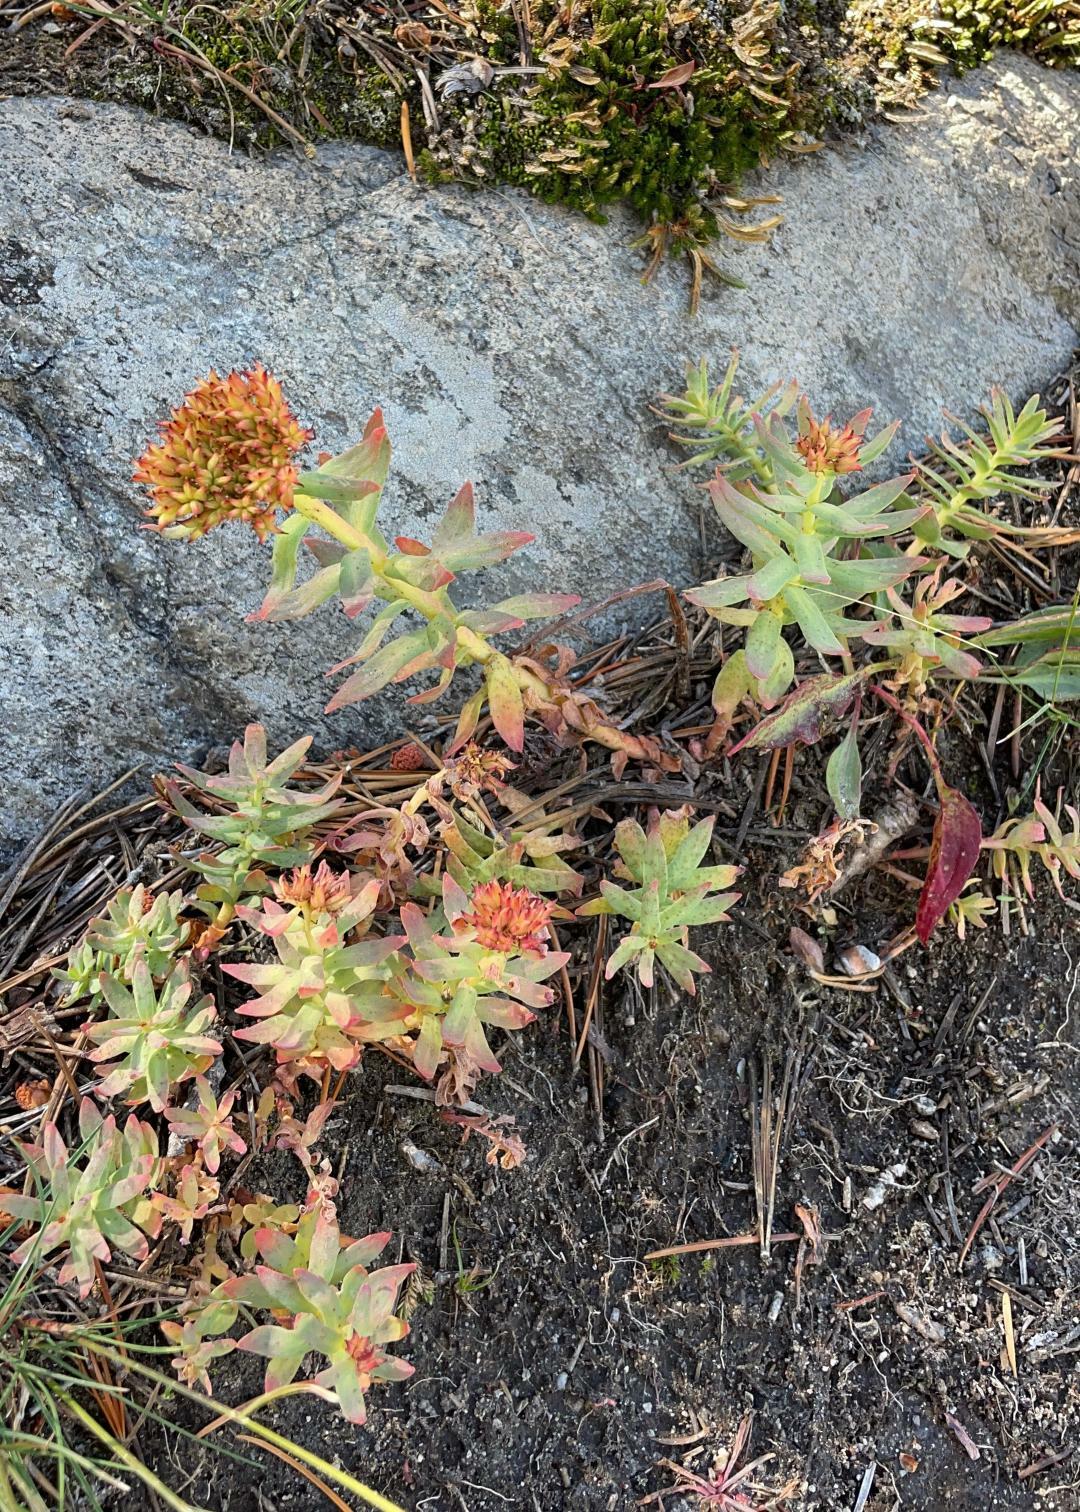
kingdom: Plantae
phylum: Tracheophyta
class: Magnoliopsida
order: Saxifragales
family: Crassulaceae
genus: Rhodiola
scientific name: Rhodiola integrifolia
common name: Western roseroot
